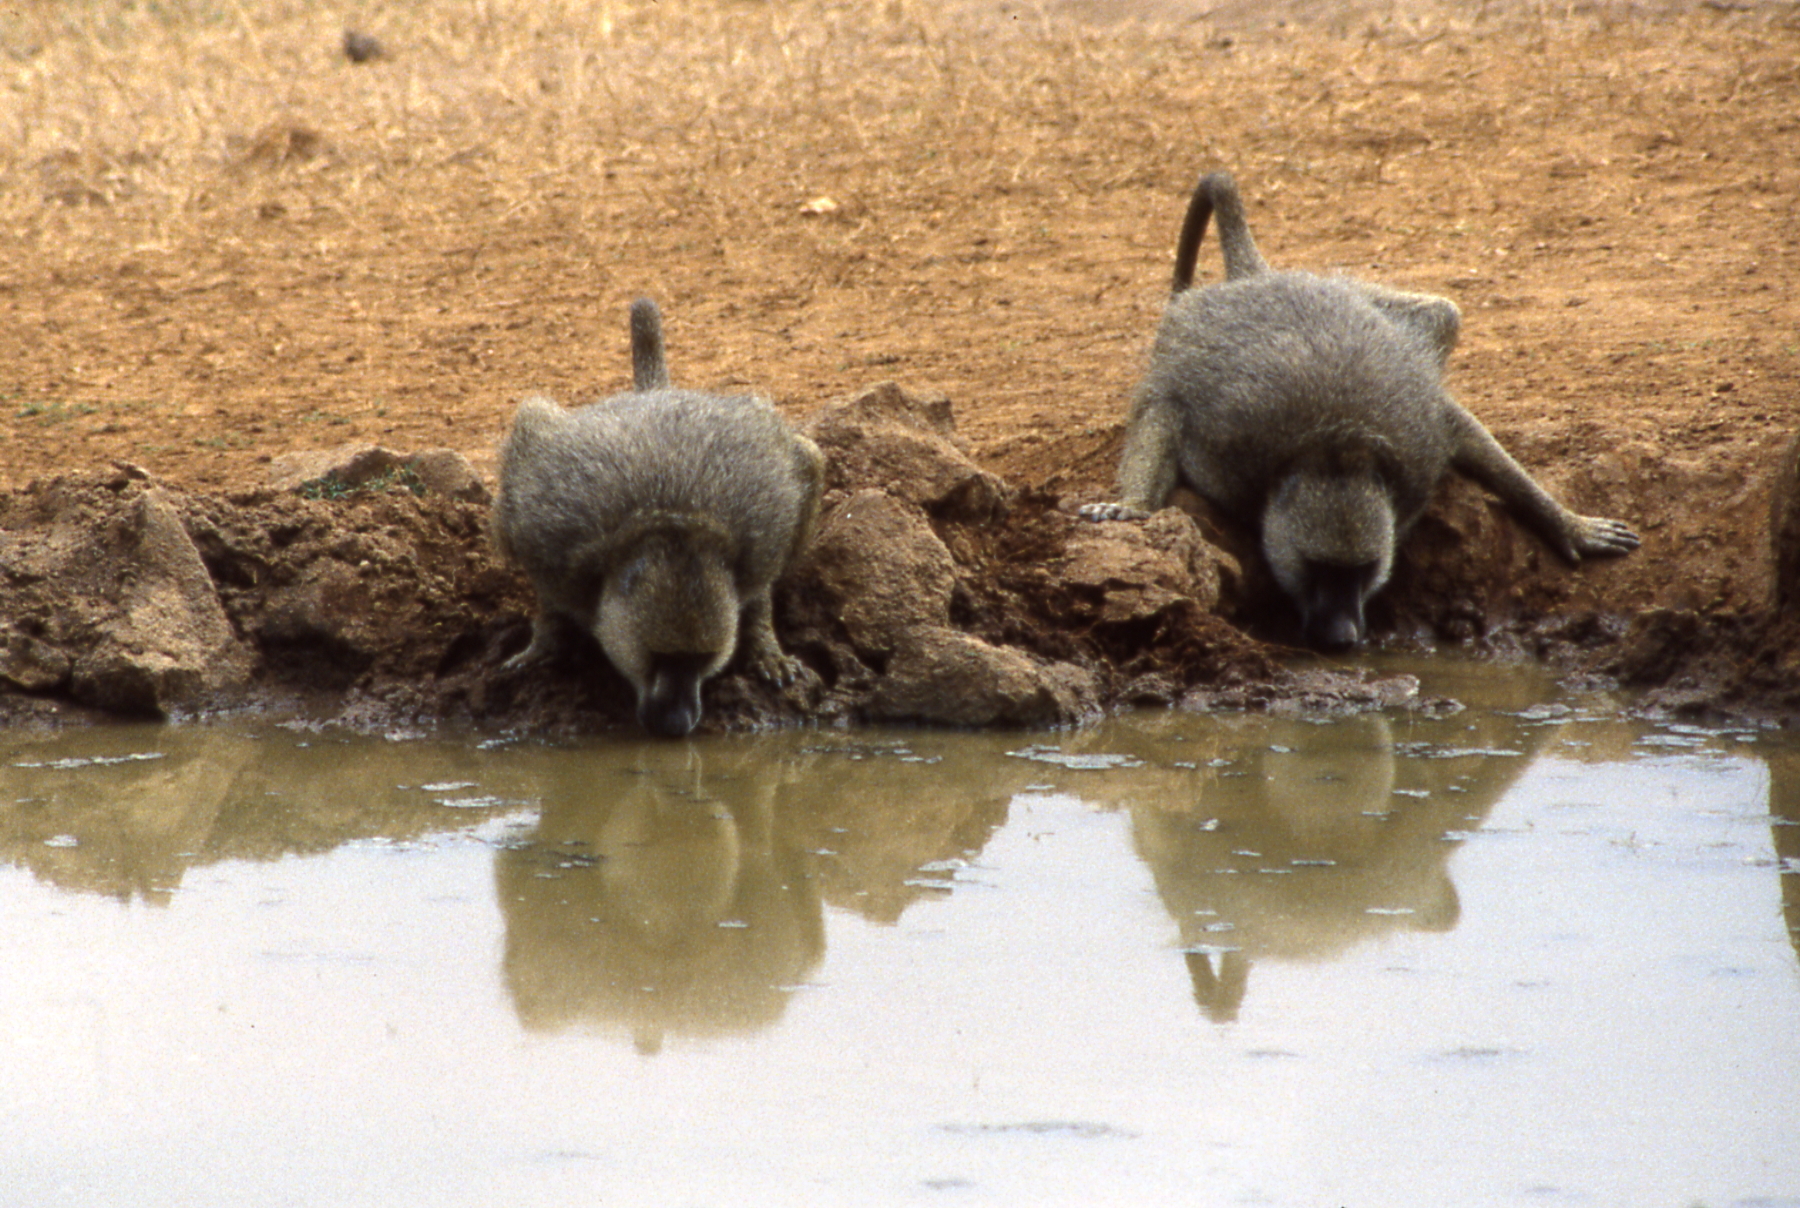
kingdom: Animalia
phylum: Chordata
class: Mammalia
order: Primates
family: Cercopithecidae
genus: Papio
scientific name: Papio anubis
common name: Olive baboon
